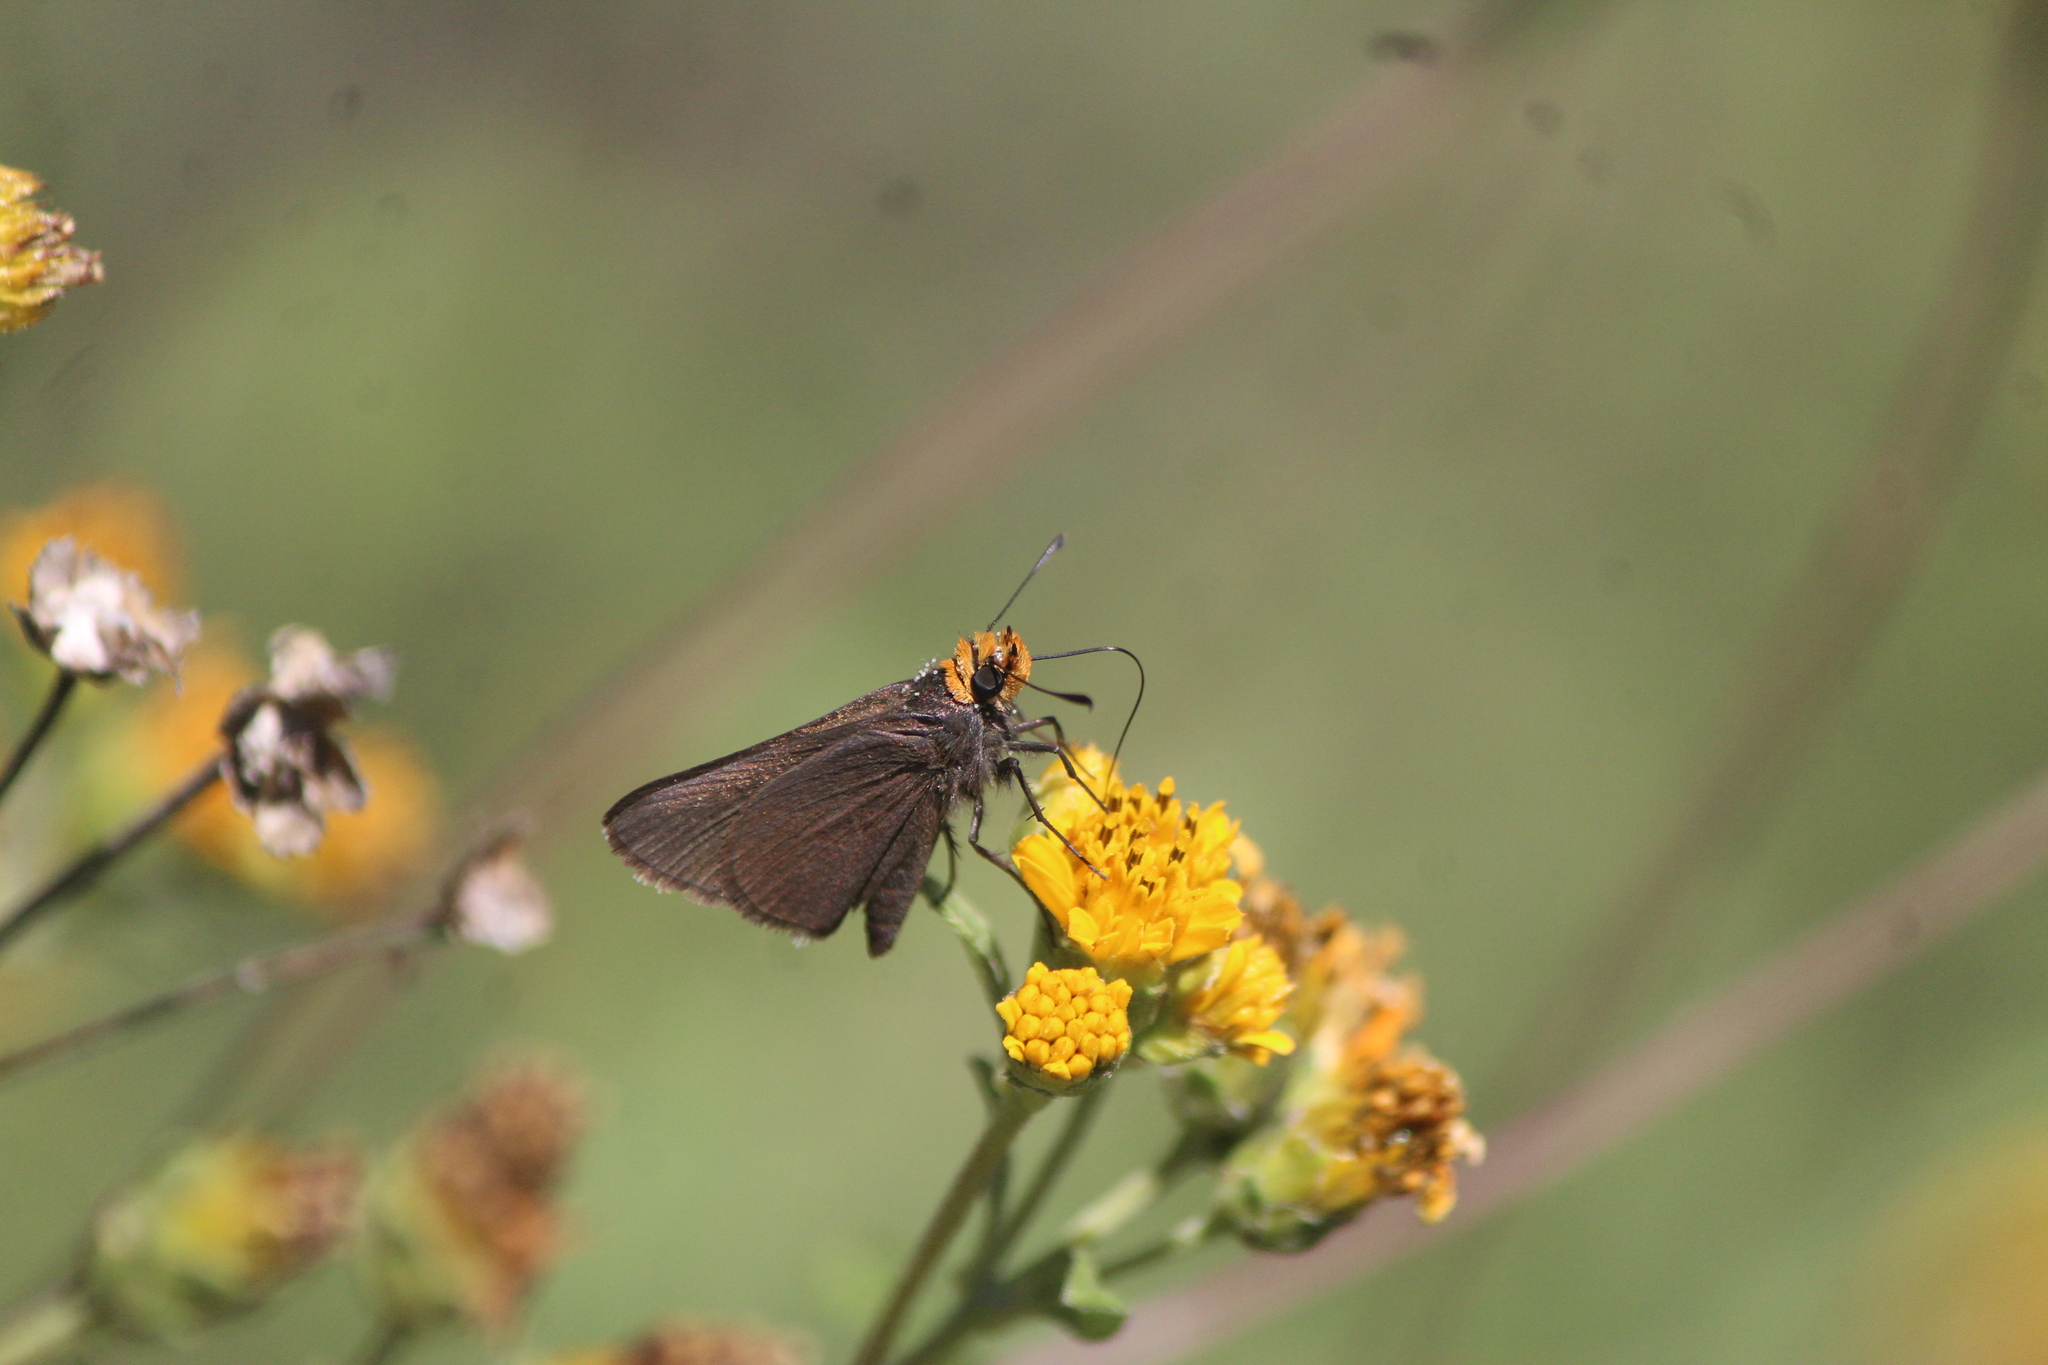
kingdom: Animalia
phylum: Arthropoda
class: Insecta
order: Lepidoptera
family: Hesperiidae
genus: Mastor
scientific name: Mastor fimbriata
